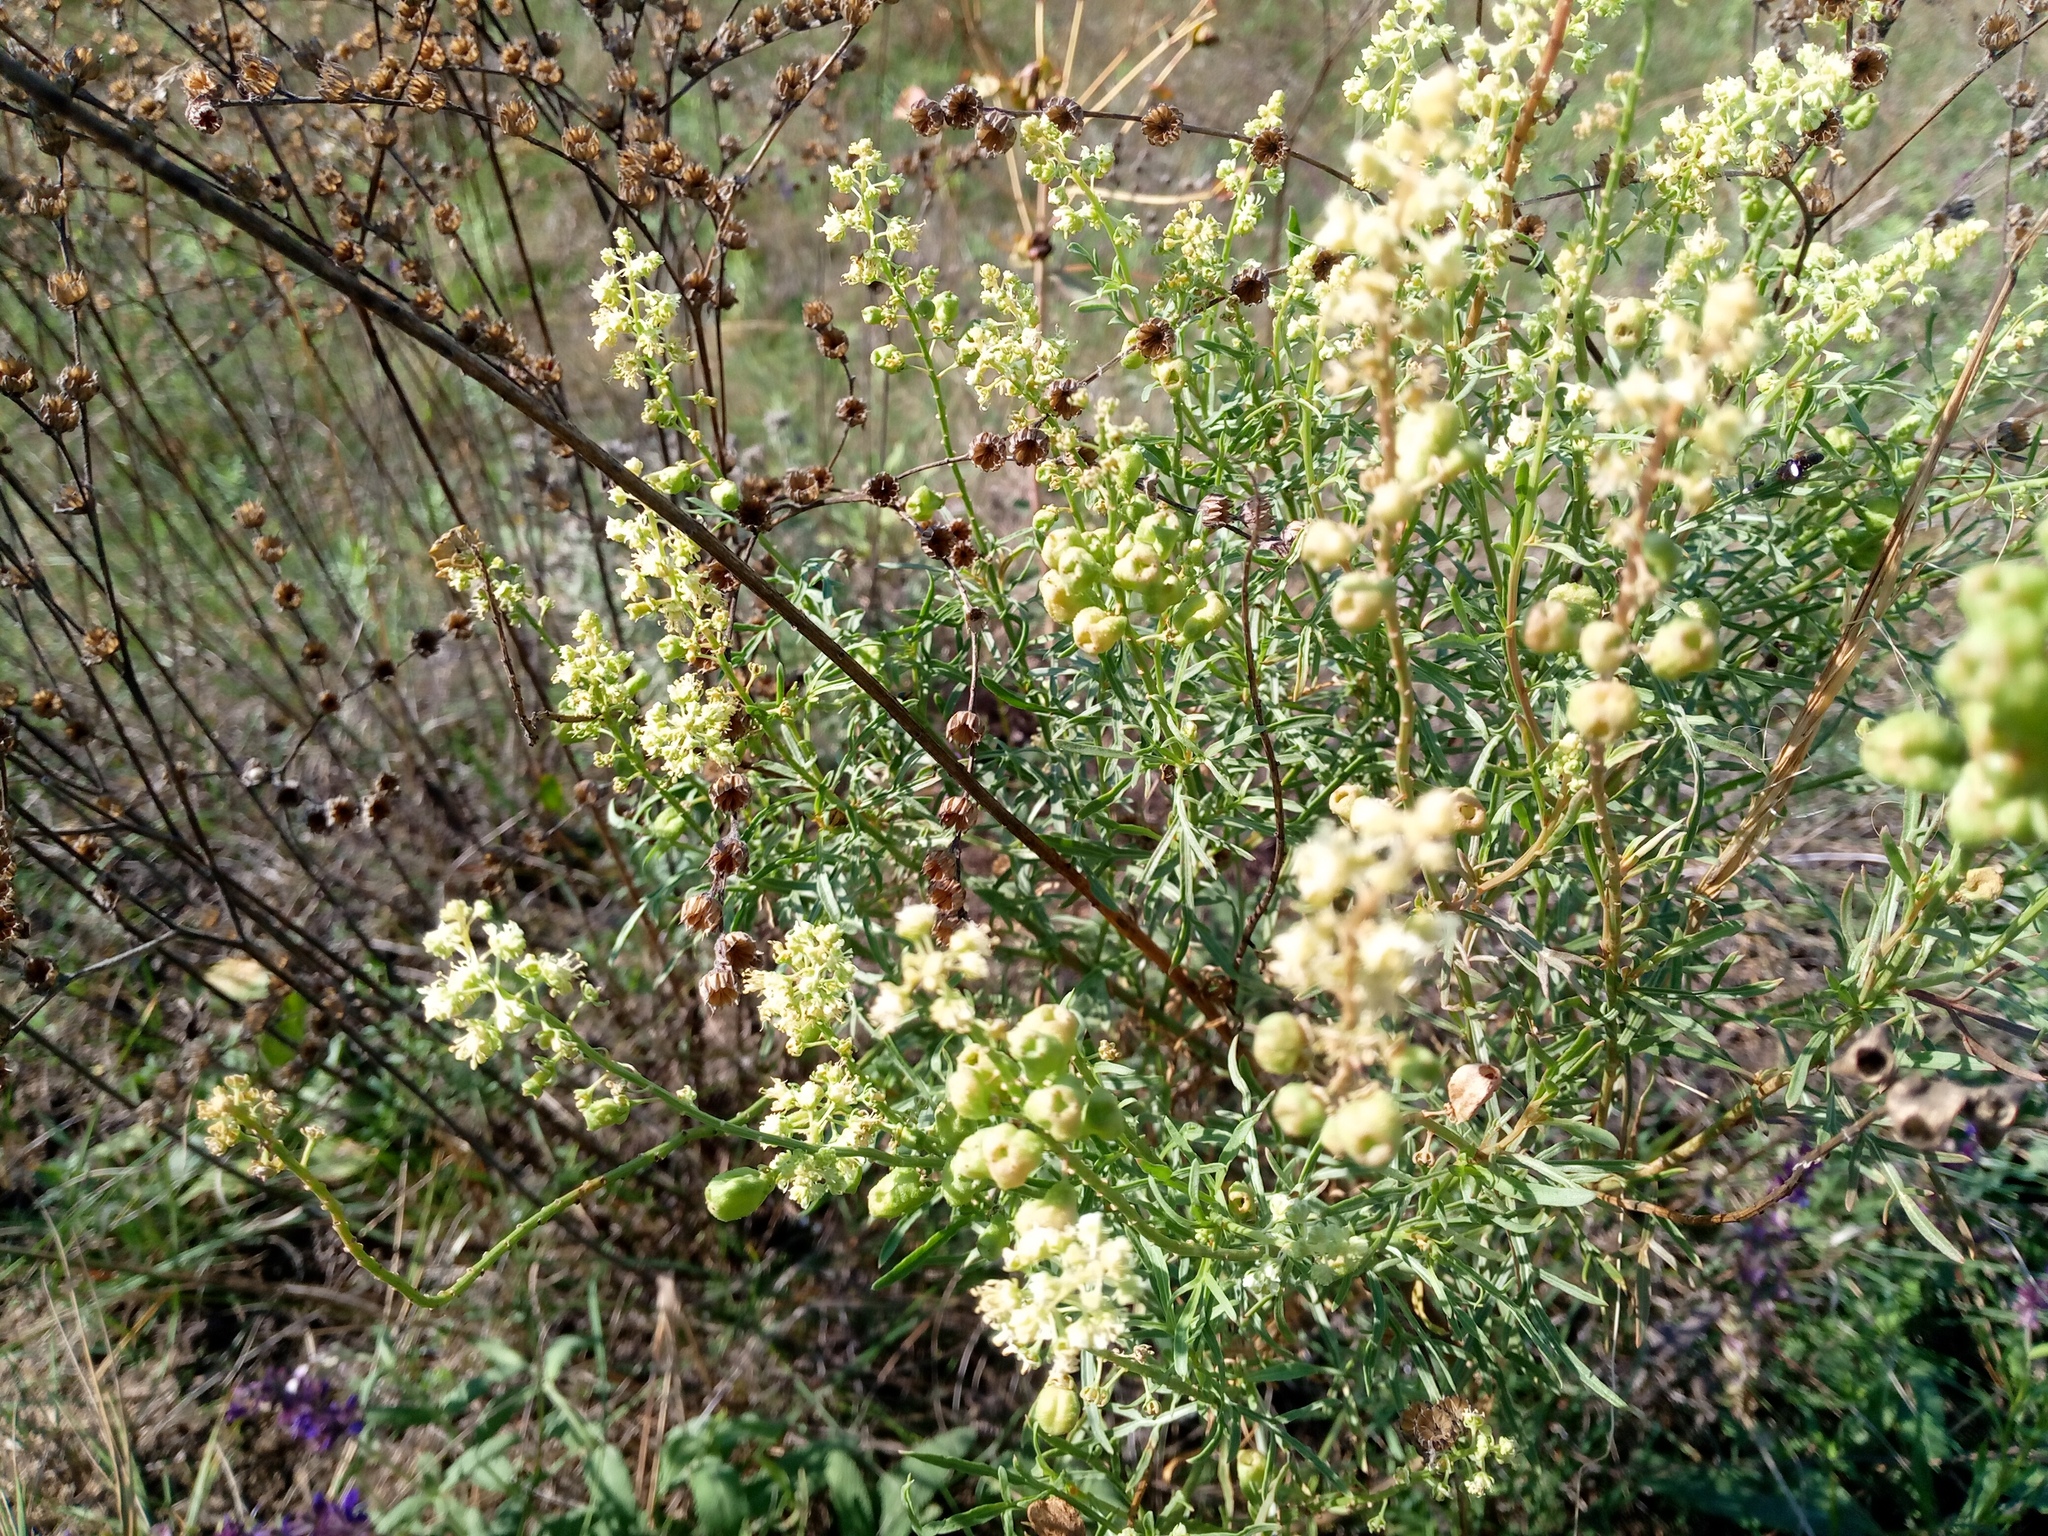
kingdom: Plantae
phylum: Tracheophyta
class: Magnoliopsida
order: Brassicales
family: Resedaceae
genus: Reseda
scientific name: Reseda lutea
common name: Wild mignonette
